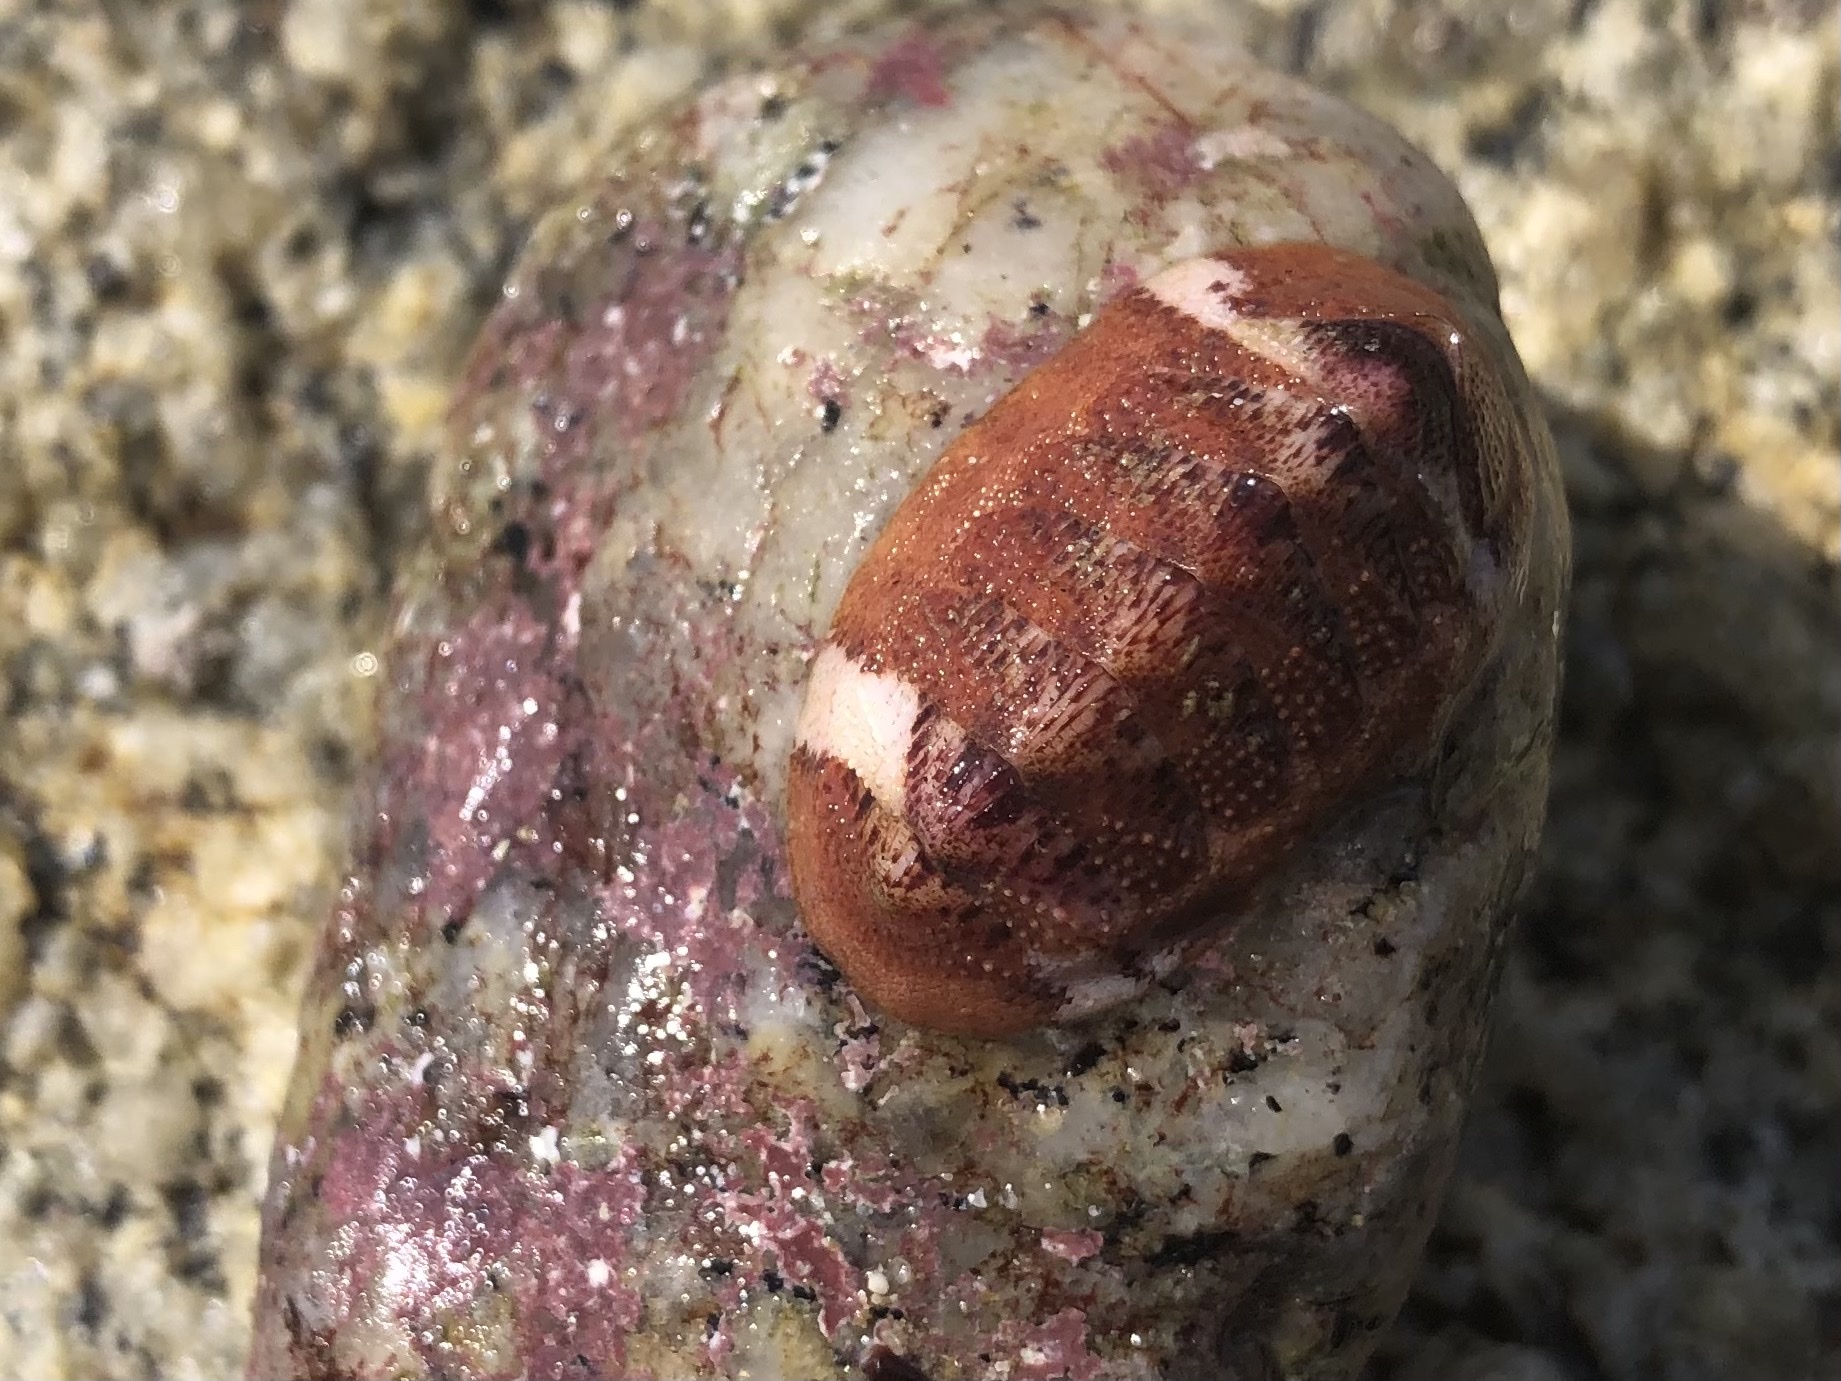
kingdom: Animalia
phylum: Mollusca
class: Polyplacophora
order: Chitonida
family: Ischnochitonidae
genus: Lepidozona
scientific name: Lepidozona mertensii
